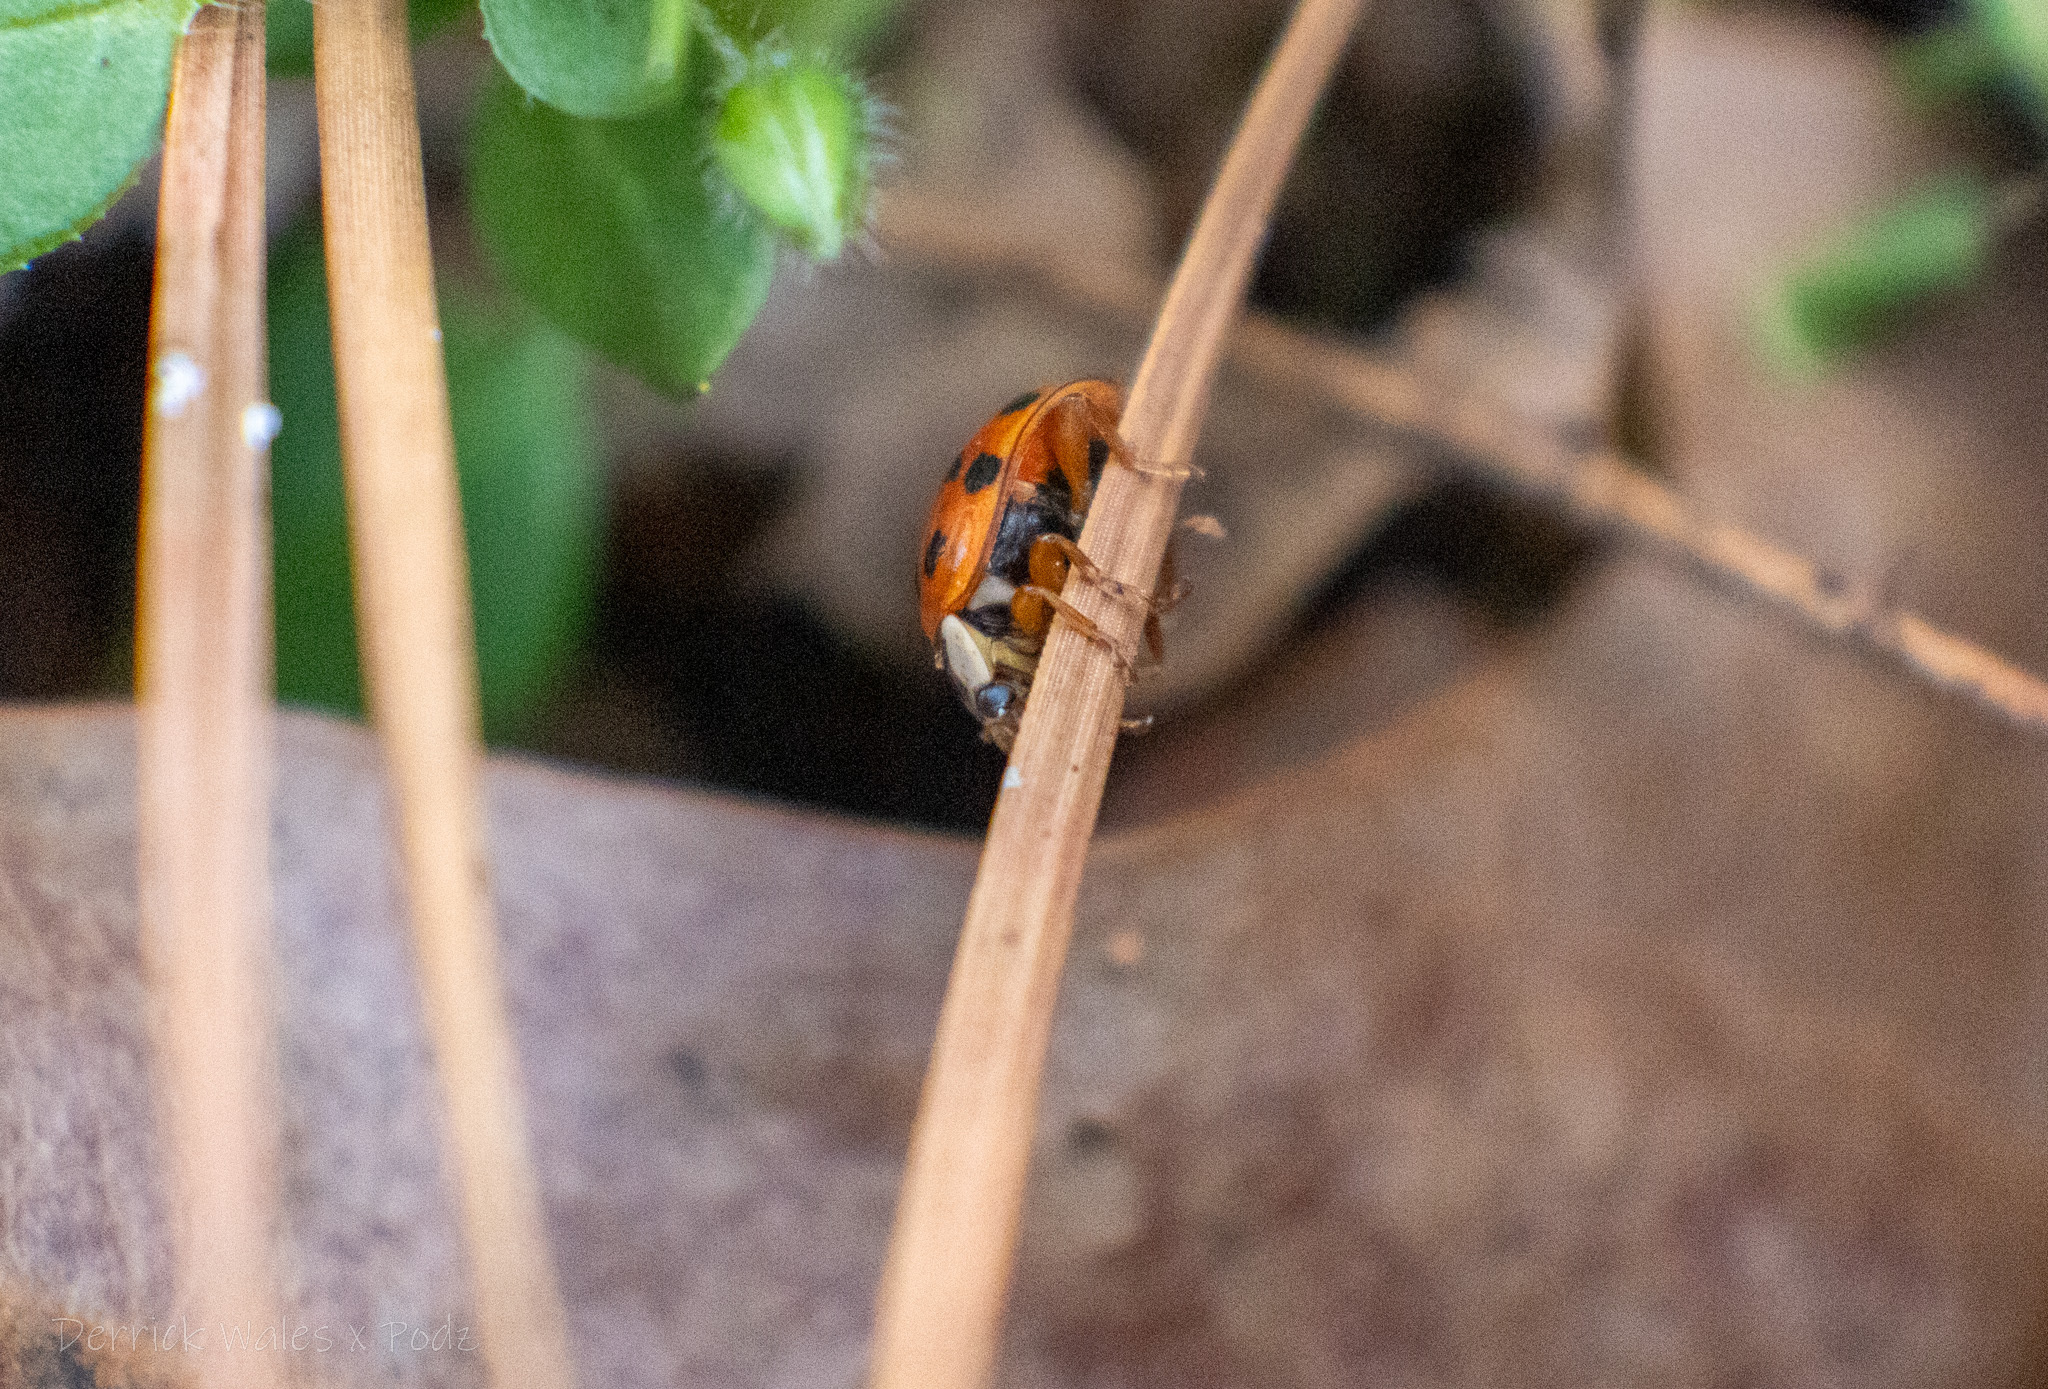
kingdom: Animalia
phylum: Arthropoda
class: Insecta
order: Coleoptera
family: Coccinellidae
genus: Harmonia
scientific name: Harmonia axyridis
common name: Harlequin ladybird
